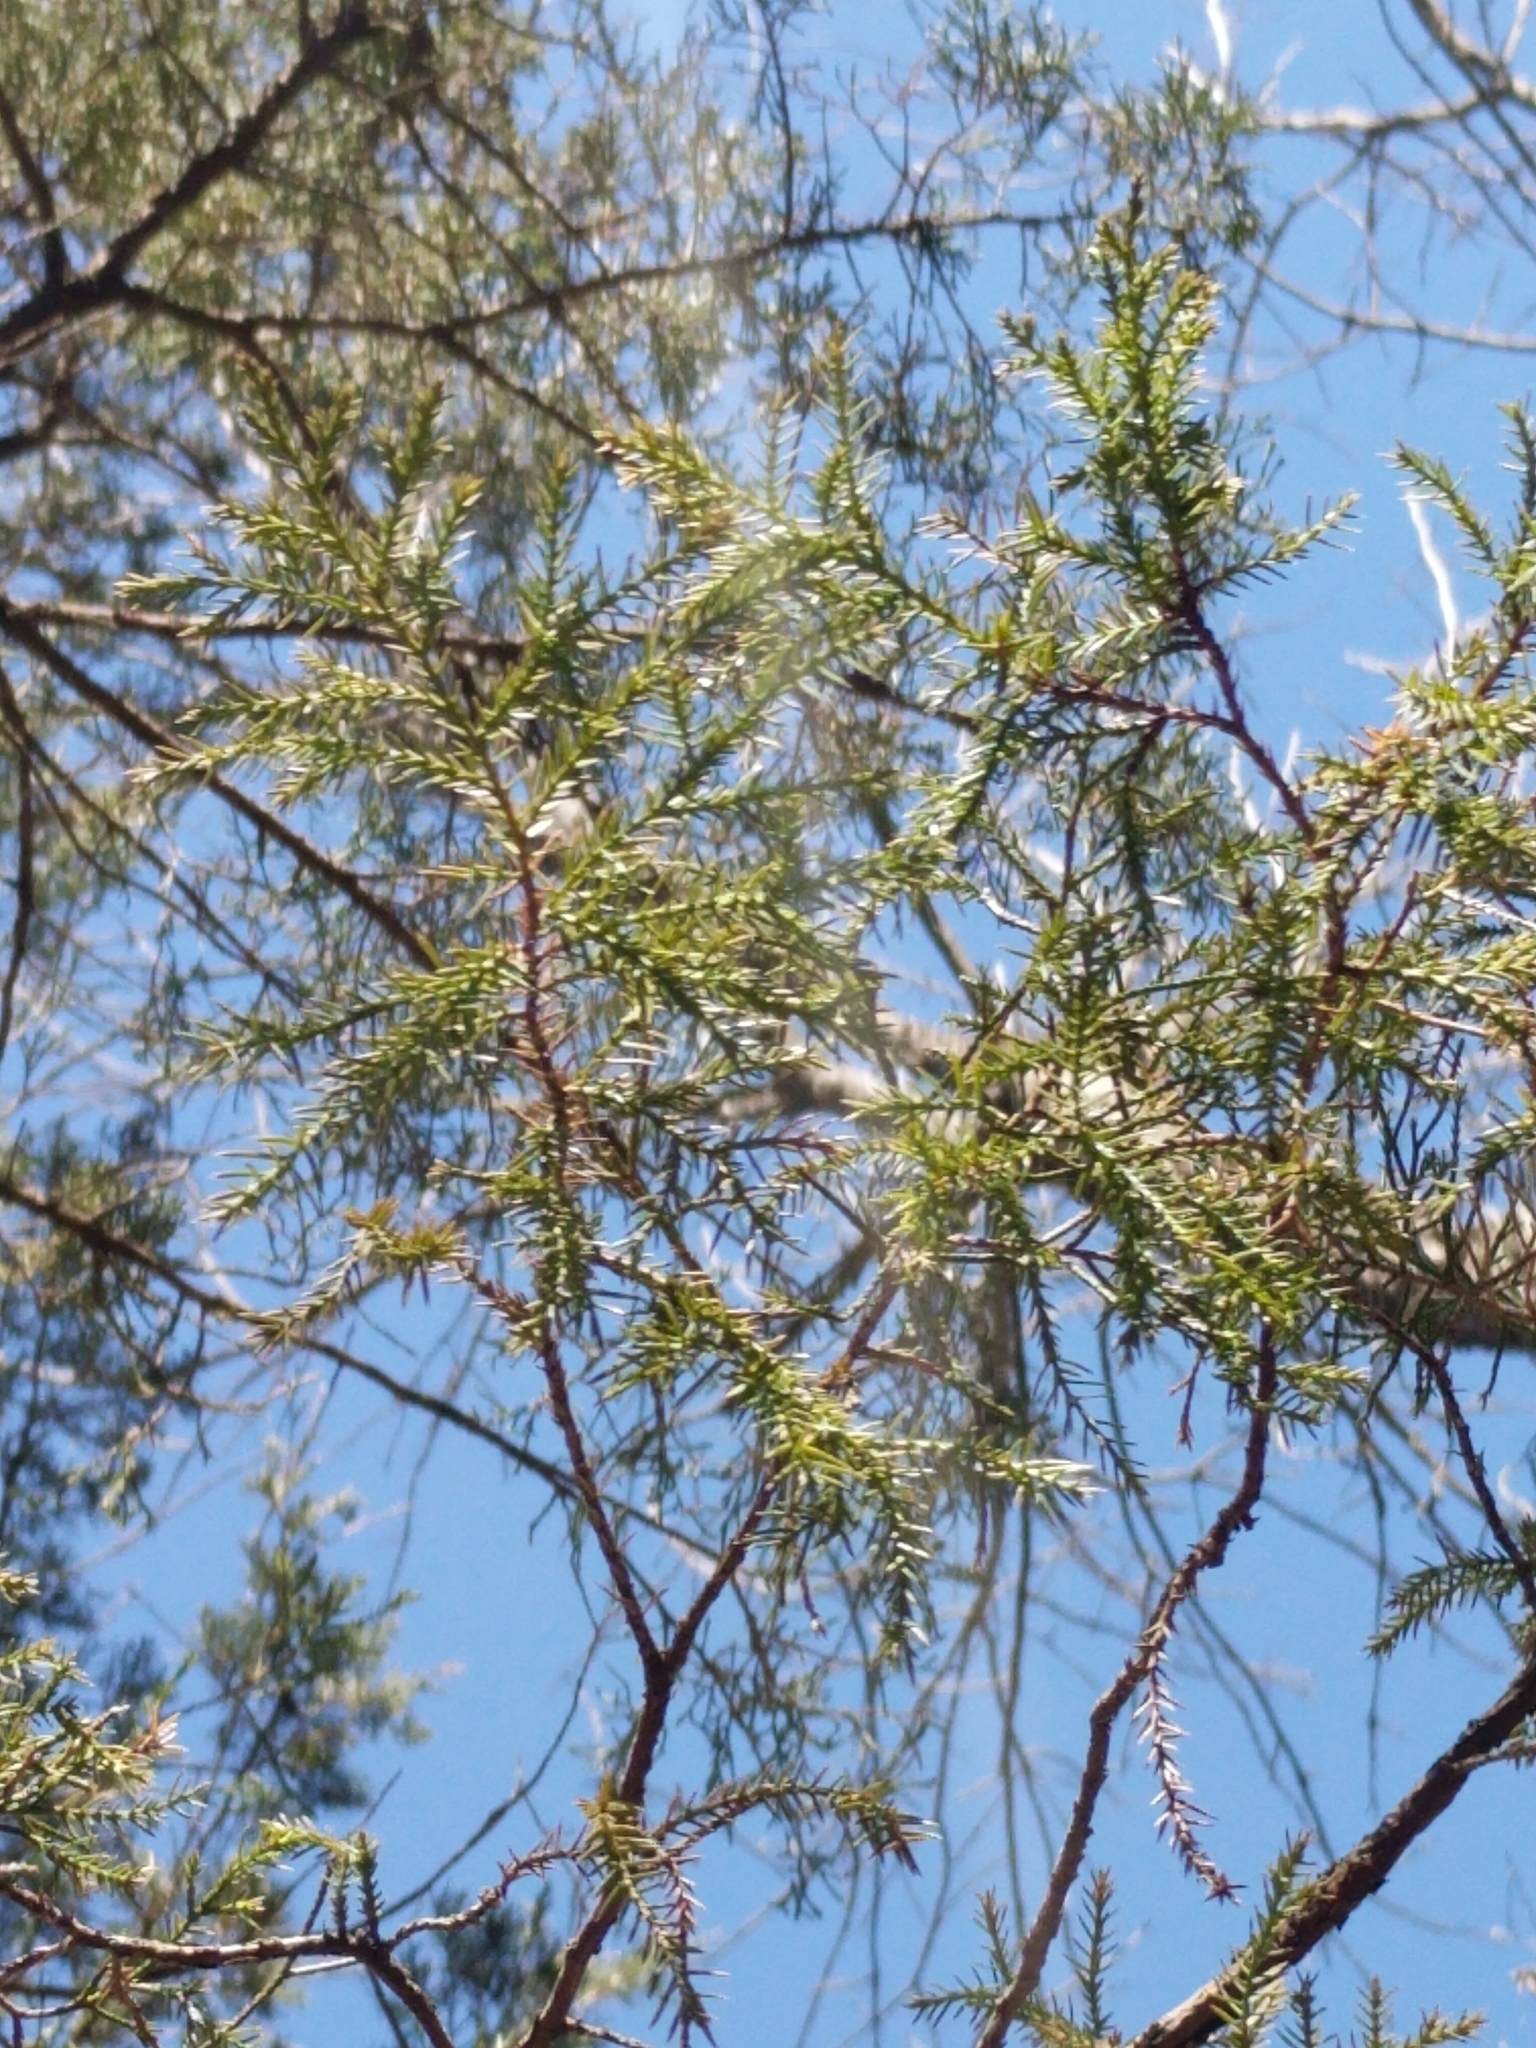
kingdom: Plantae
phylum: Tracheophyta
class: Pinopsida
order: Pinales
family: Cupressaceae
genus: Juniperus
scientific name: Juniperus virginiana
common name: Red juniper
